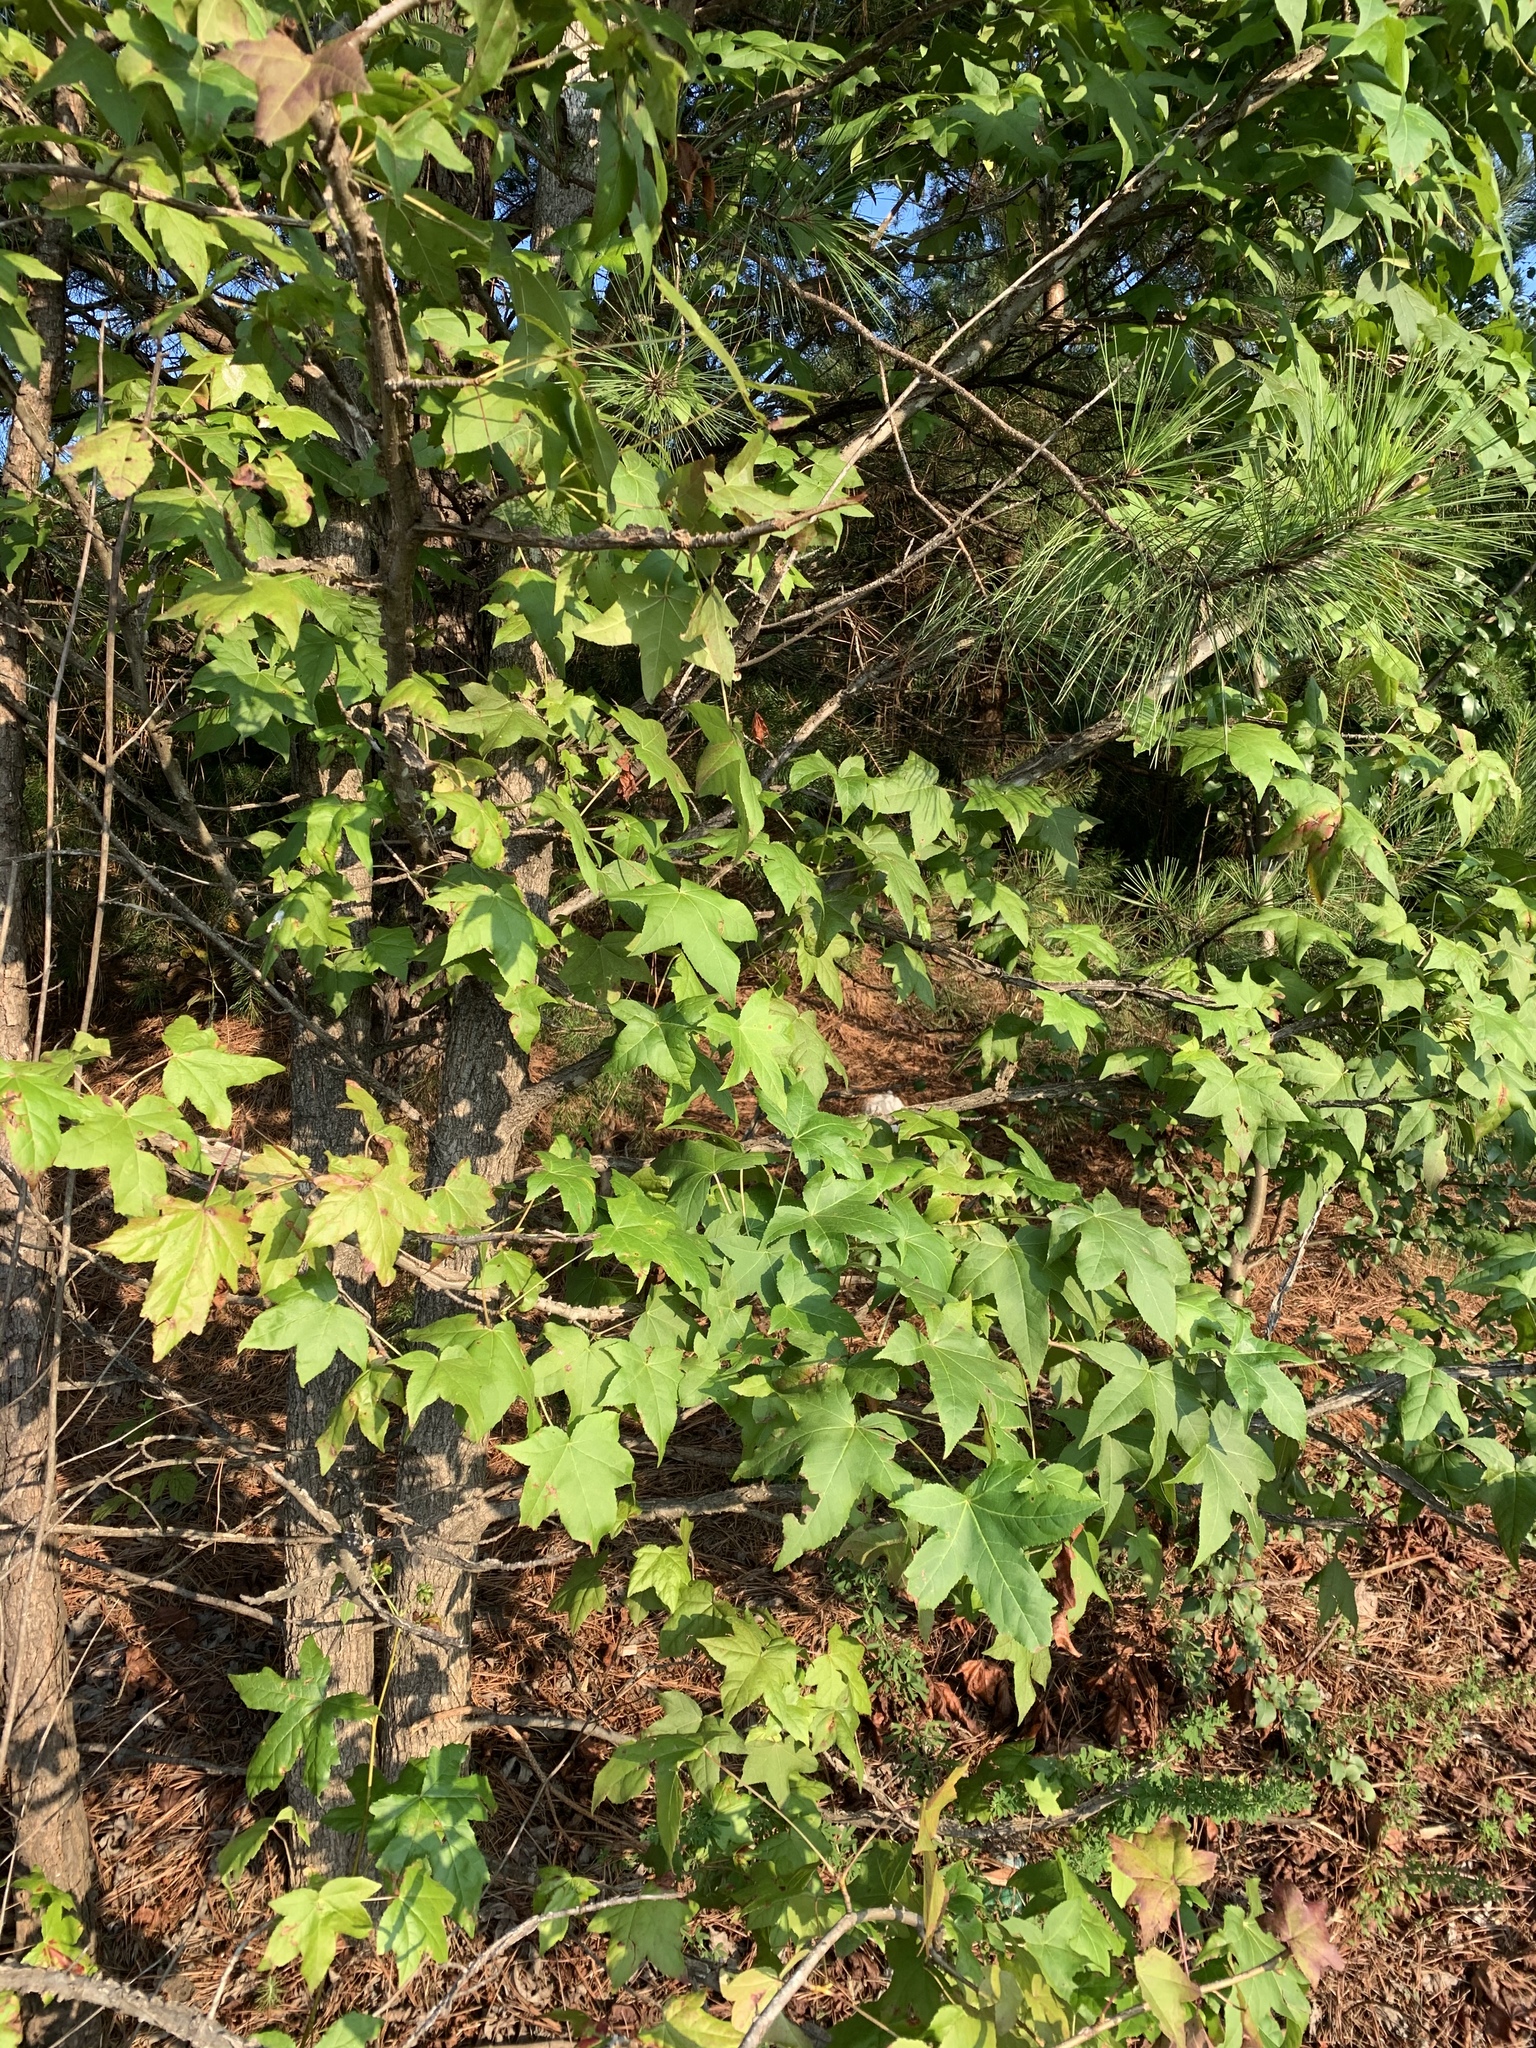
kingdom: Plantae
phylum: Tracheophyta
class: Magnoliopsida
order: Saxifragales
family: Altingiaceae
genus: Liquidambar
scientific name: Liquidambar styraciflua
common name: Sweet gum
